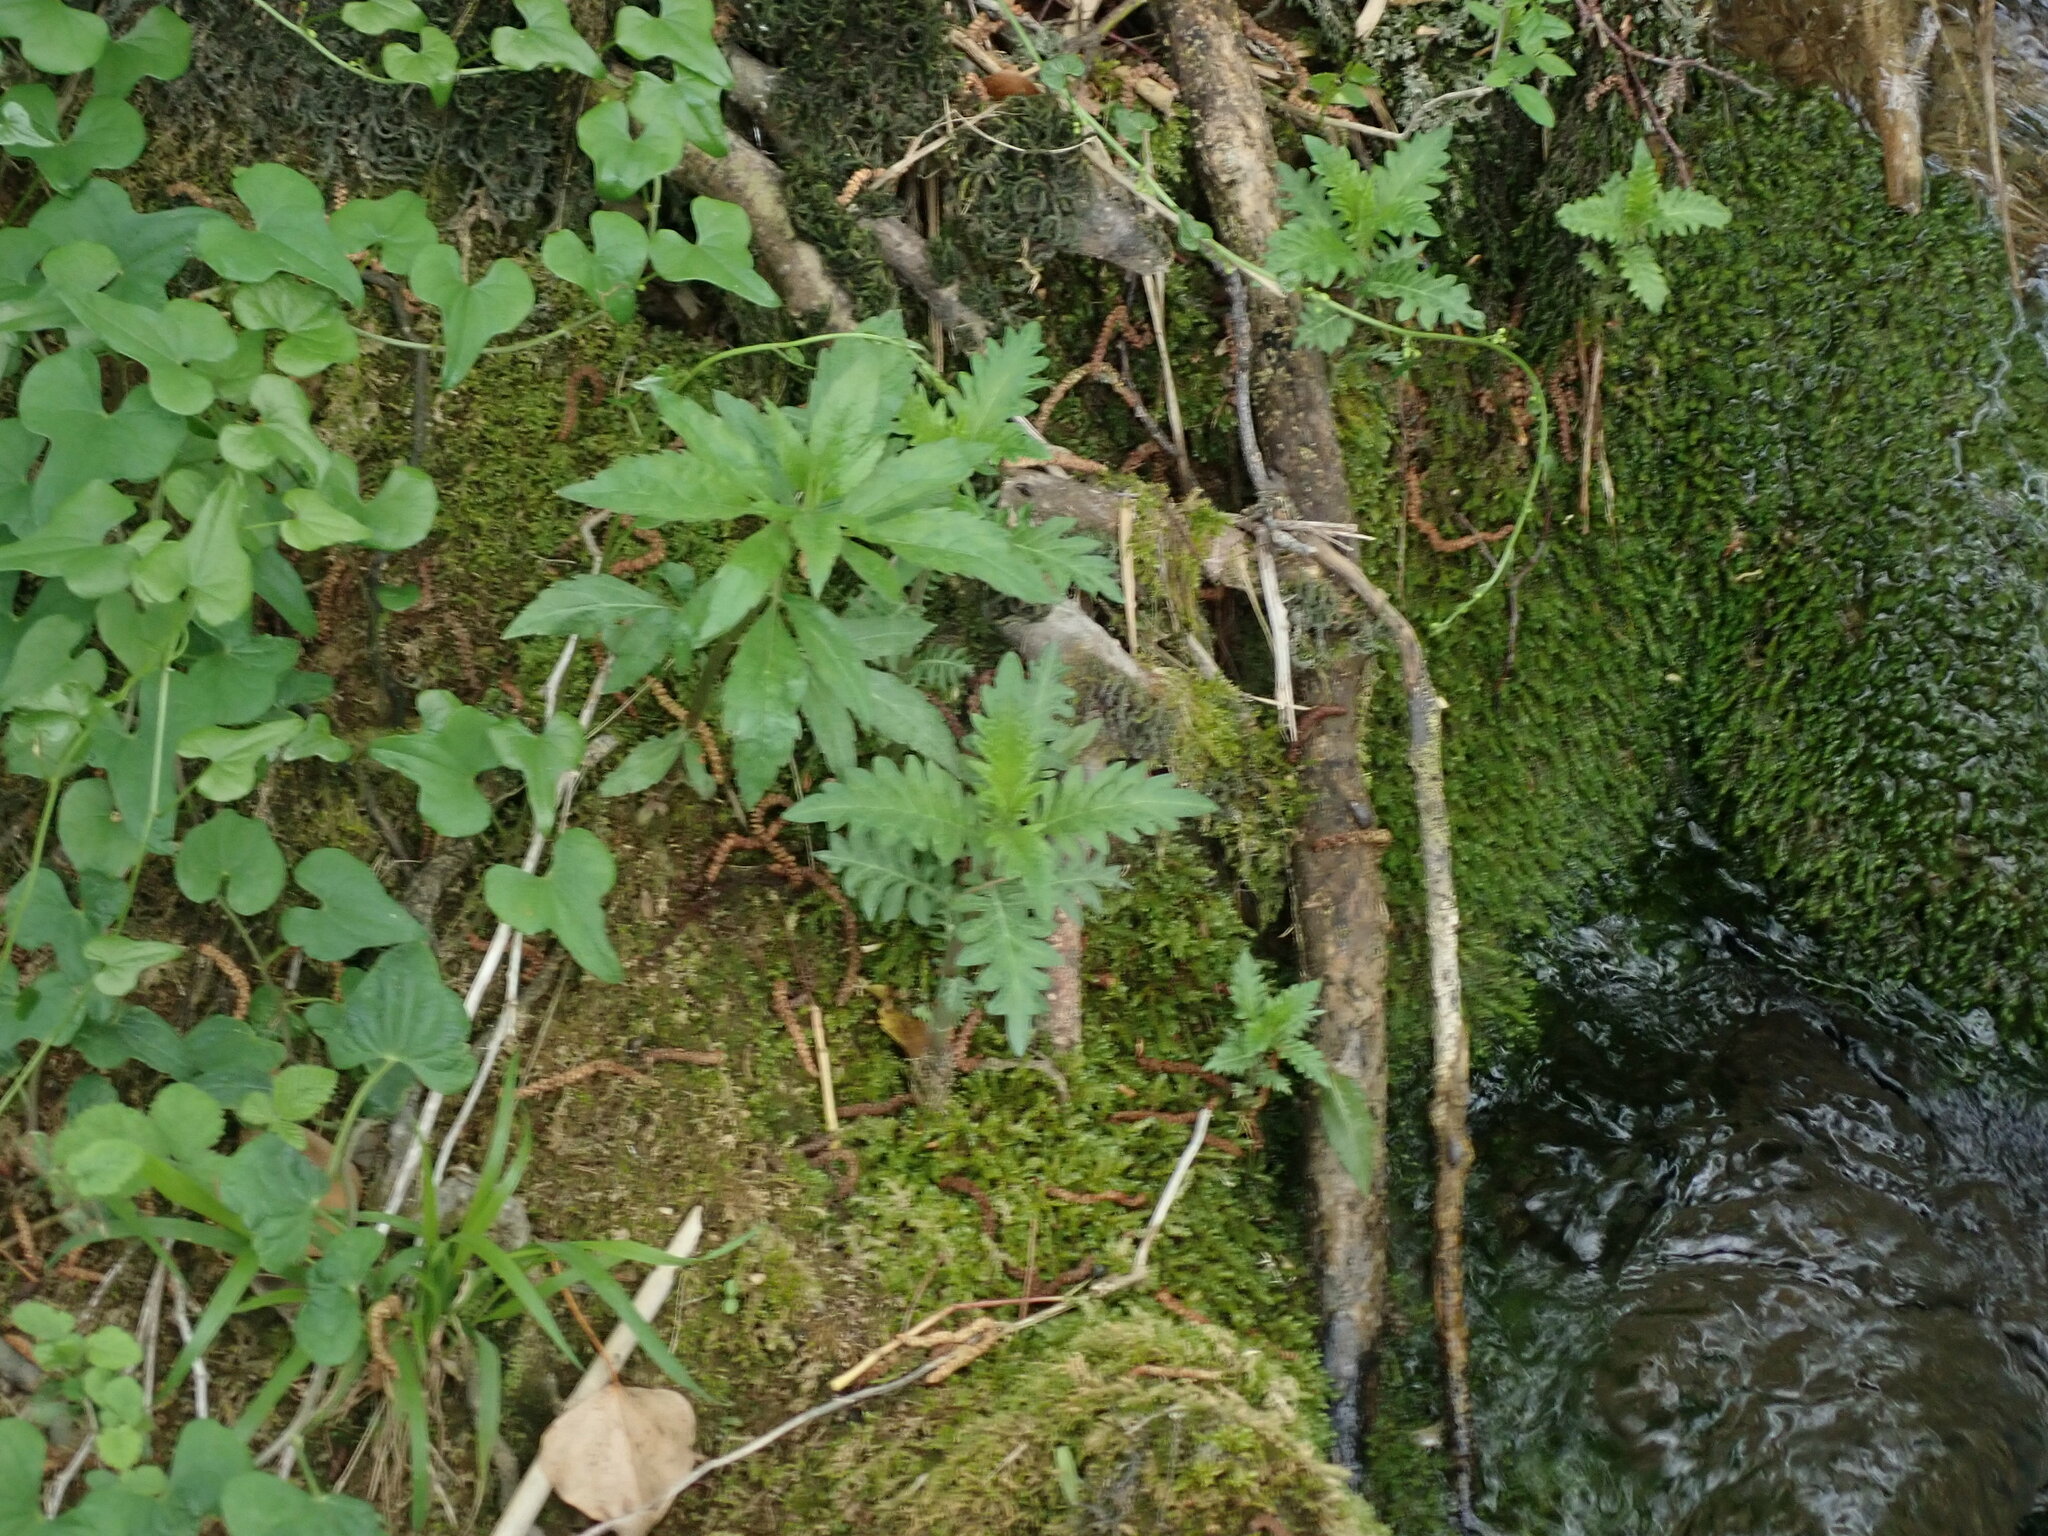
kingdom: Plantae
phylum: Tracheophyta
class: Magnoliopsida
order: Lamiales
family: Lamiaceae
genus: Lycopus
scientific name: Lycopus europaeus
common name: European bugleweed
